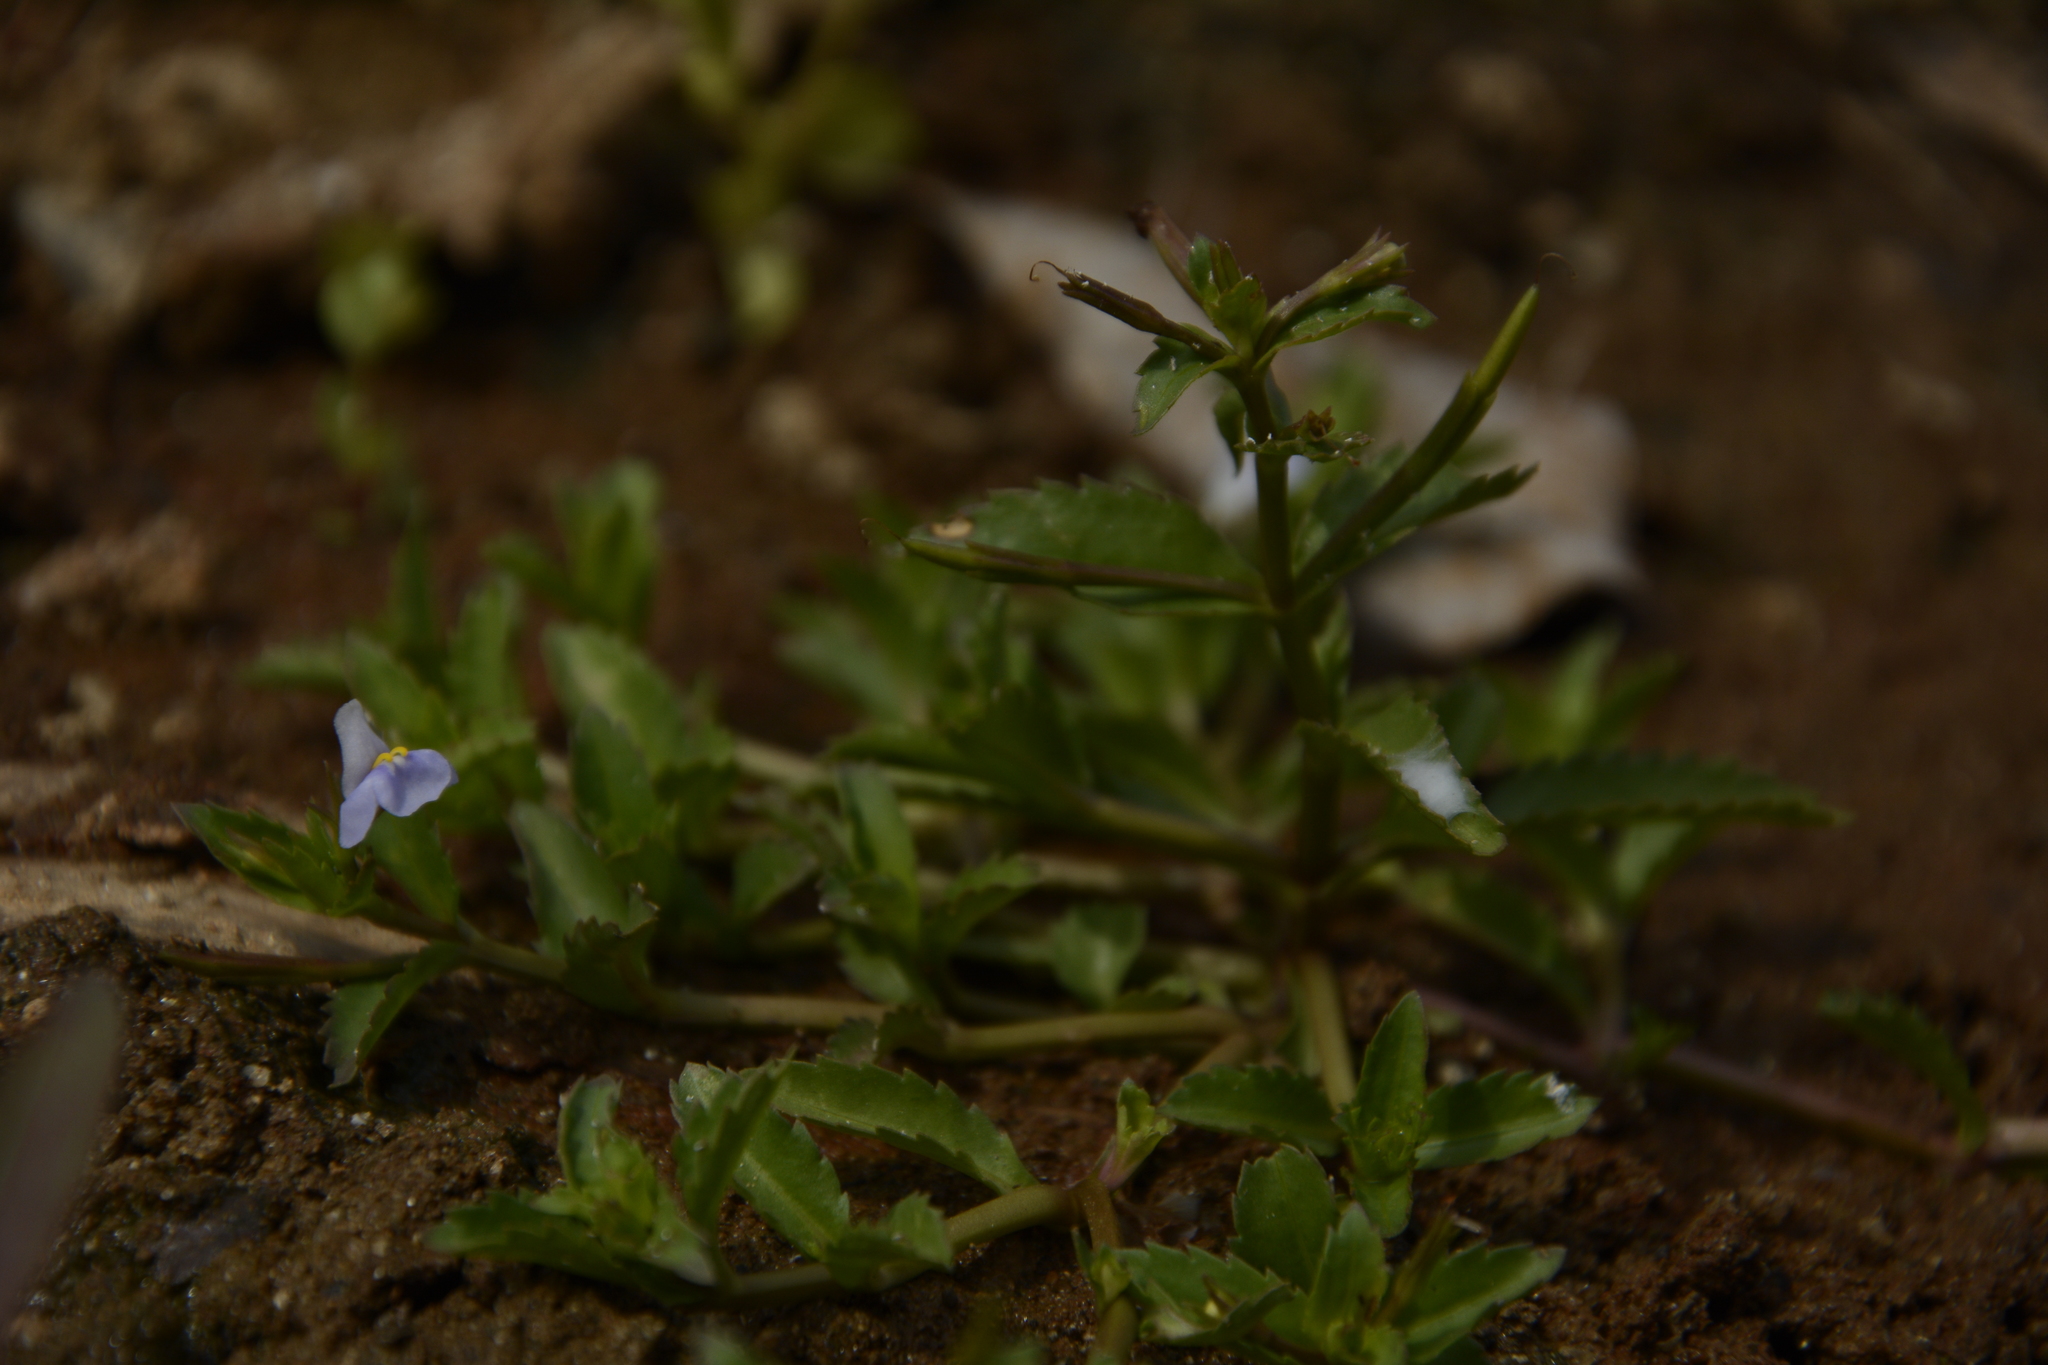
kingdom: Plantae
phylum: Tracheophyta
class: Magnoliopsida
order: Lamiales
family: Linderniaceae
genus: Bonnaya
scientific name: Bonnaya antipoda
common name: Sparrow false pimpernel
